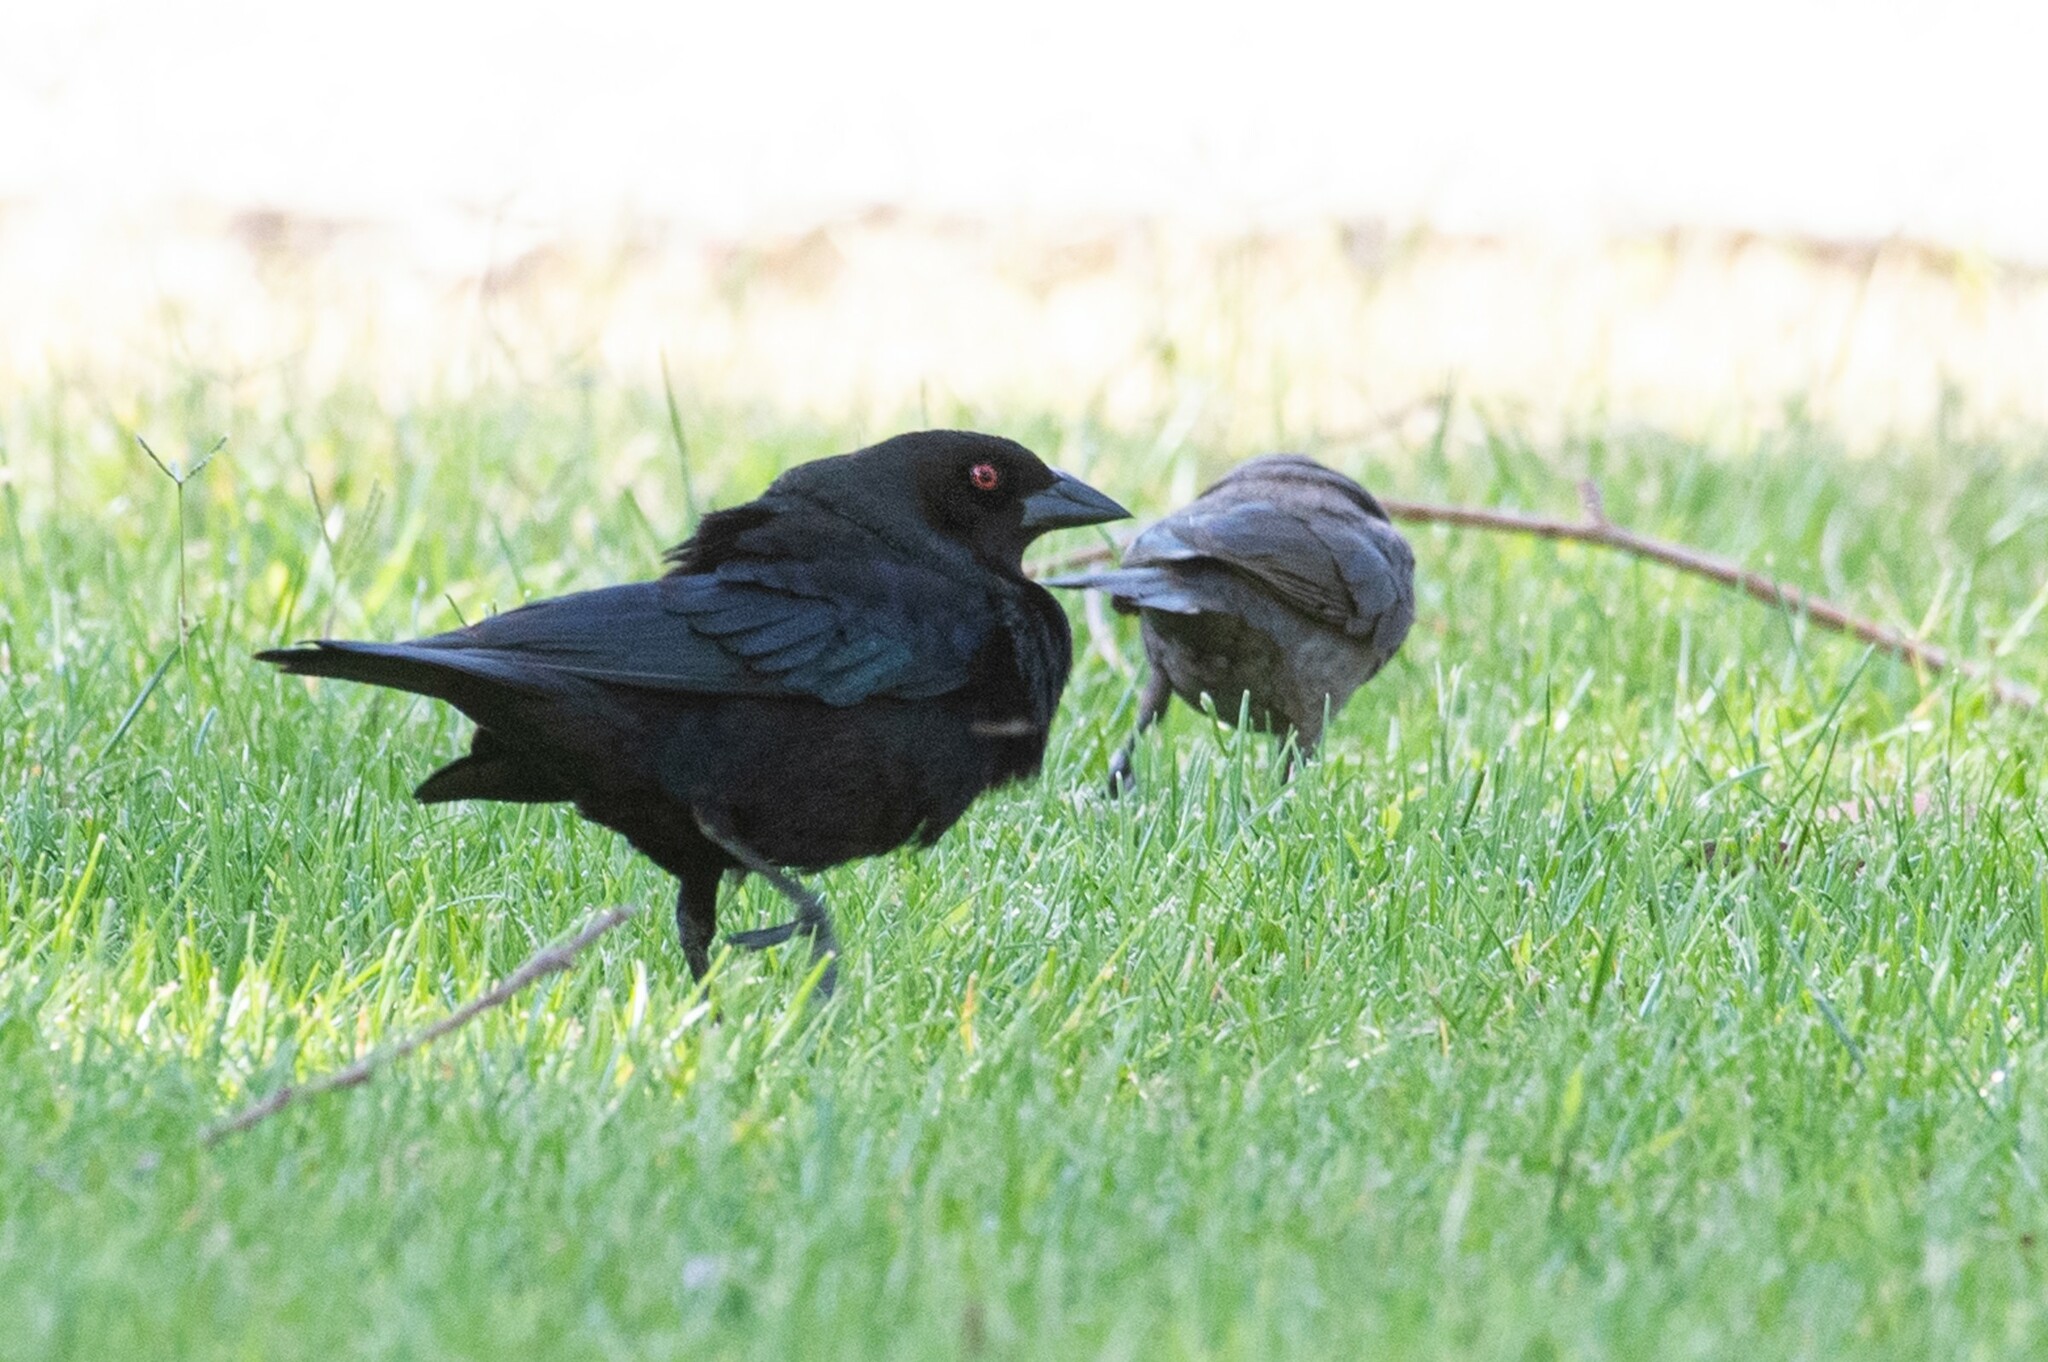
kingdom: Animalia
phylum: Chordata
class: Aves
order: Passeriformes
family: Icteridae
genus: Molothrus
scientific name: Molothrus aeneus
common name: Bronzed cowbird
